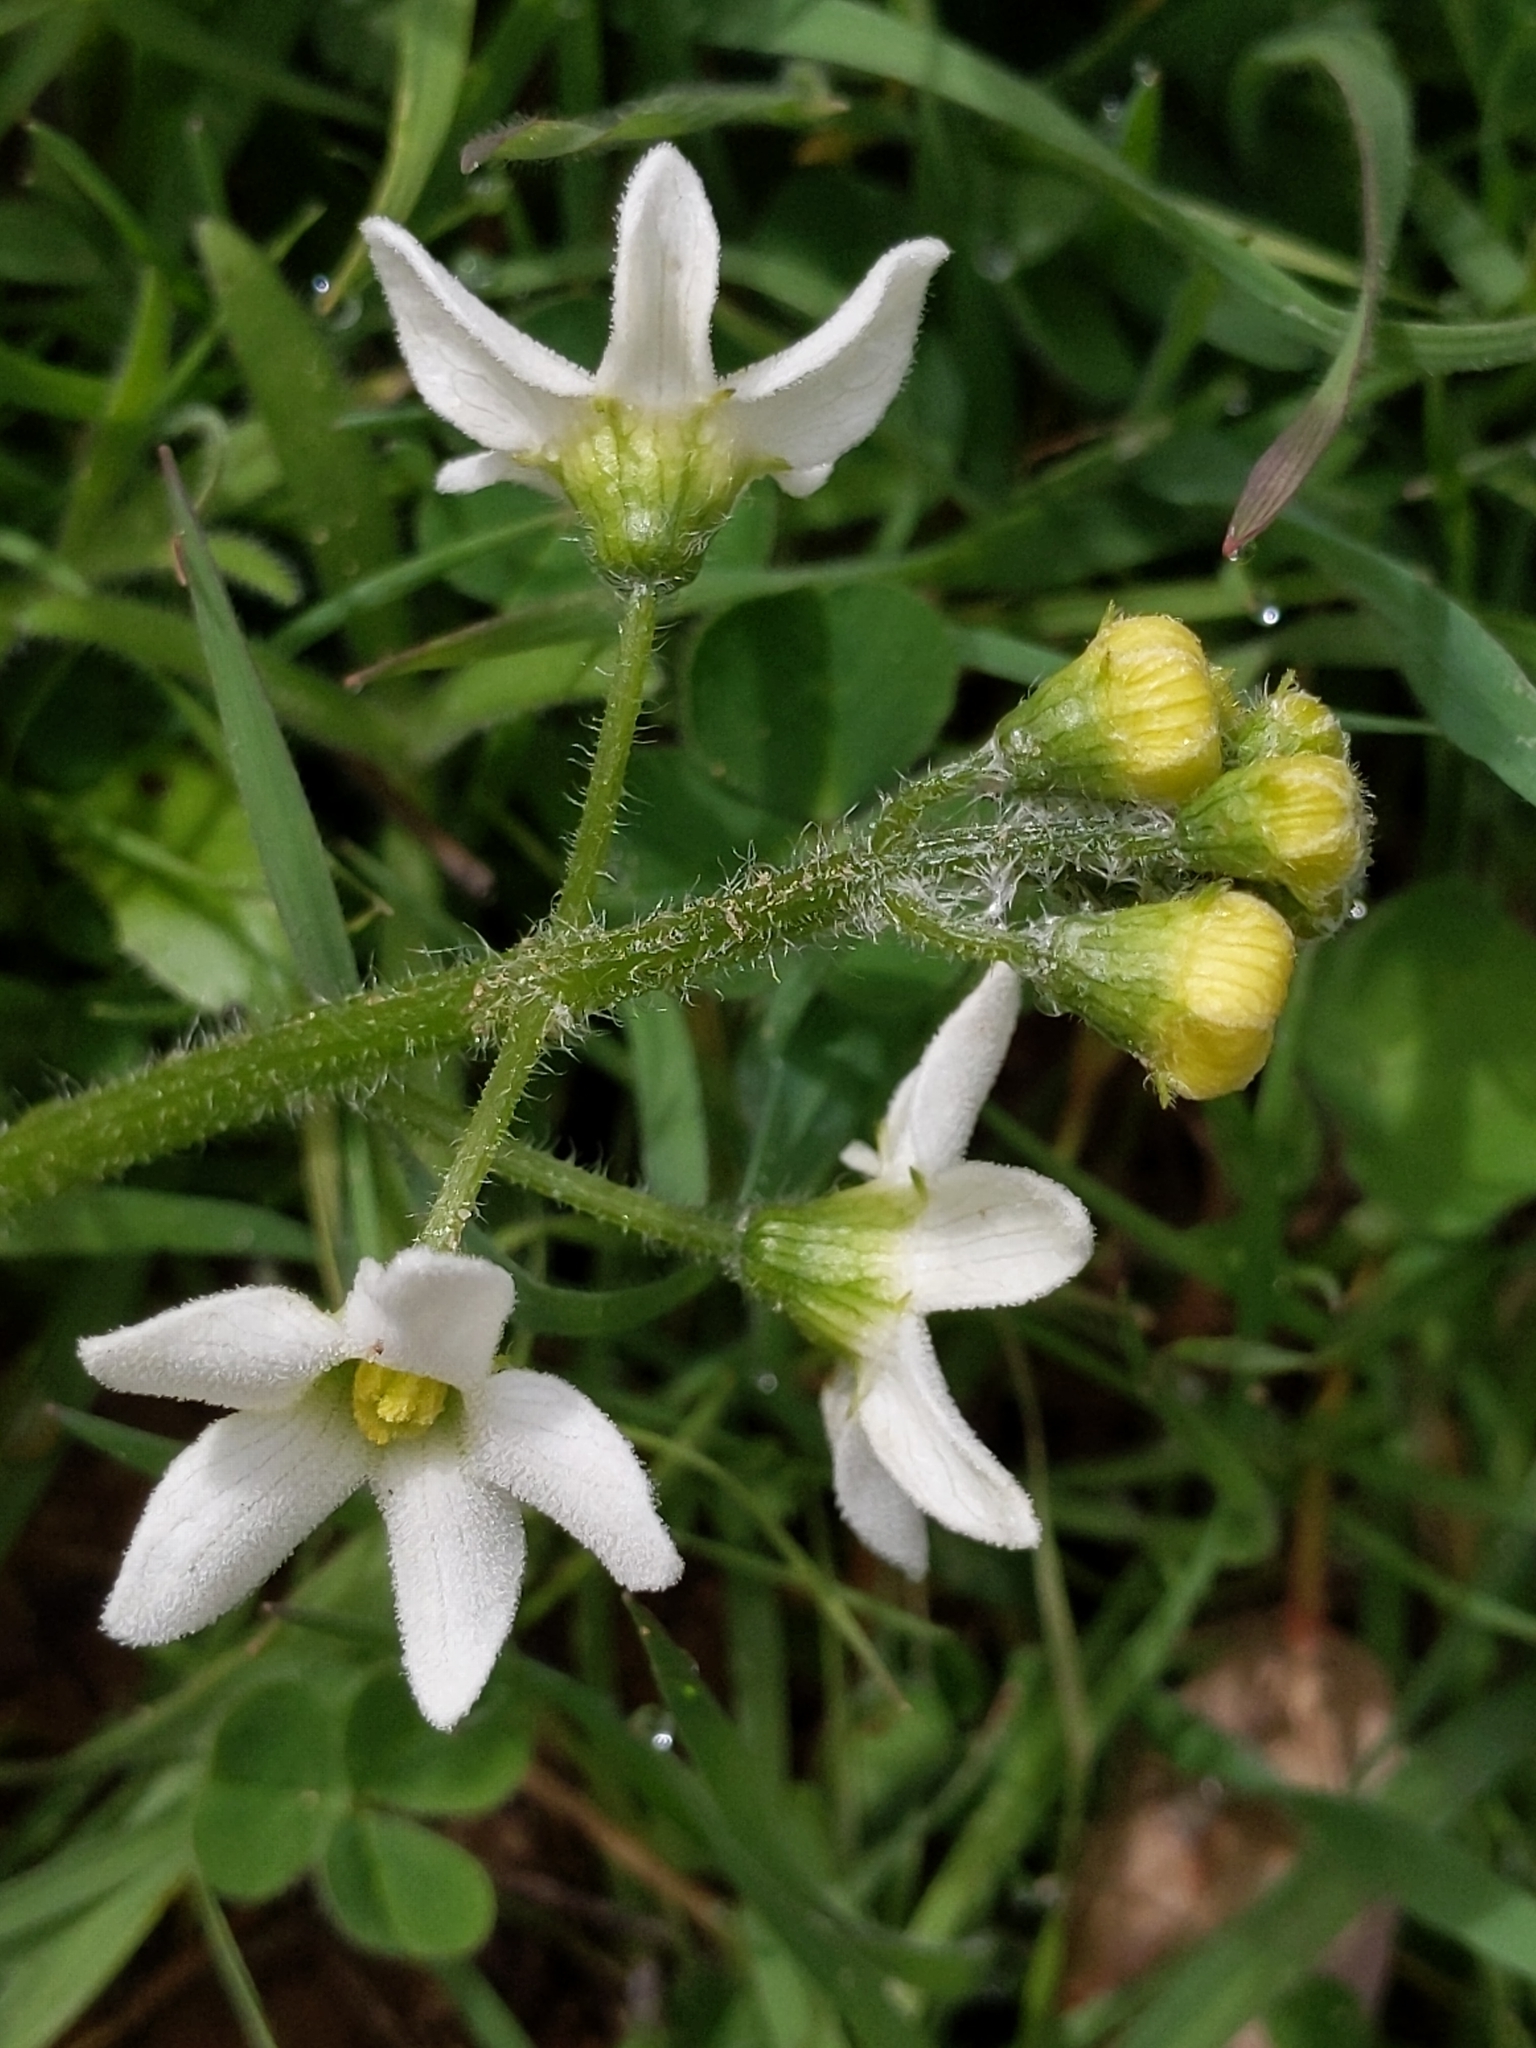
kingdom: Plantae
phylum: Tracheophyta
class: Magnoliopsida
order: Cucurbitales
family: Cucurbitaceae
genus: Marah
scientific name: Marah oregana
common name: Coastal manroot
